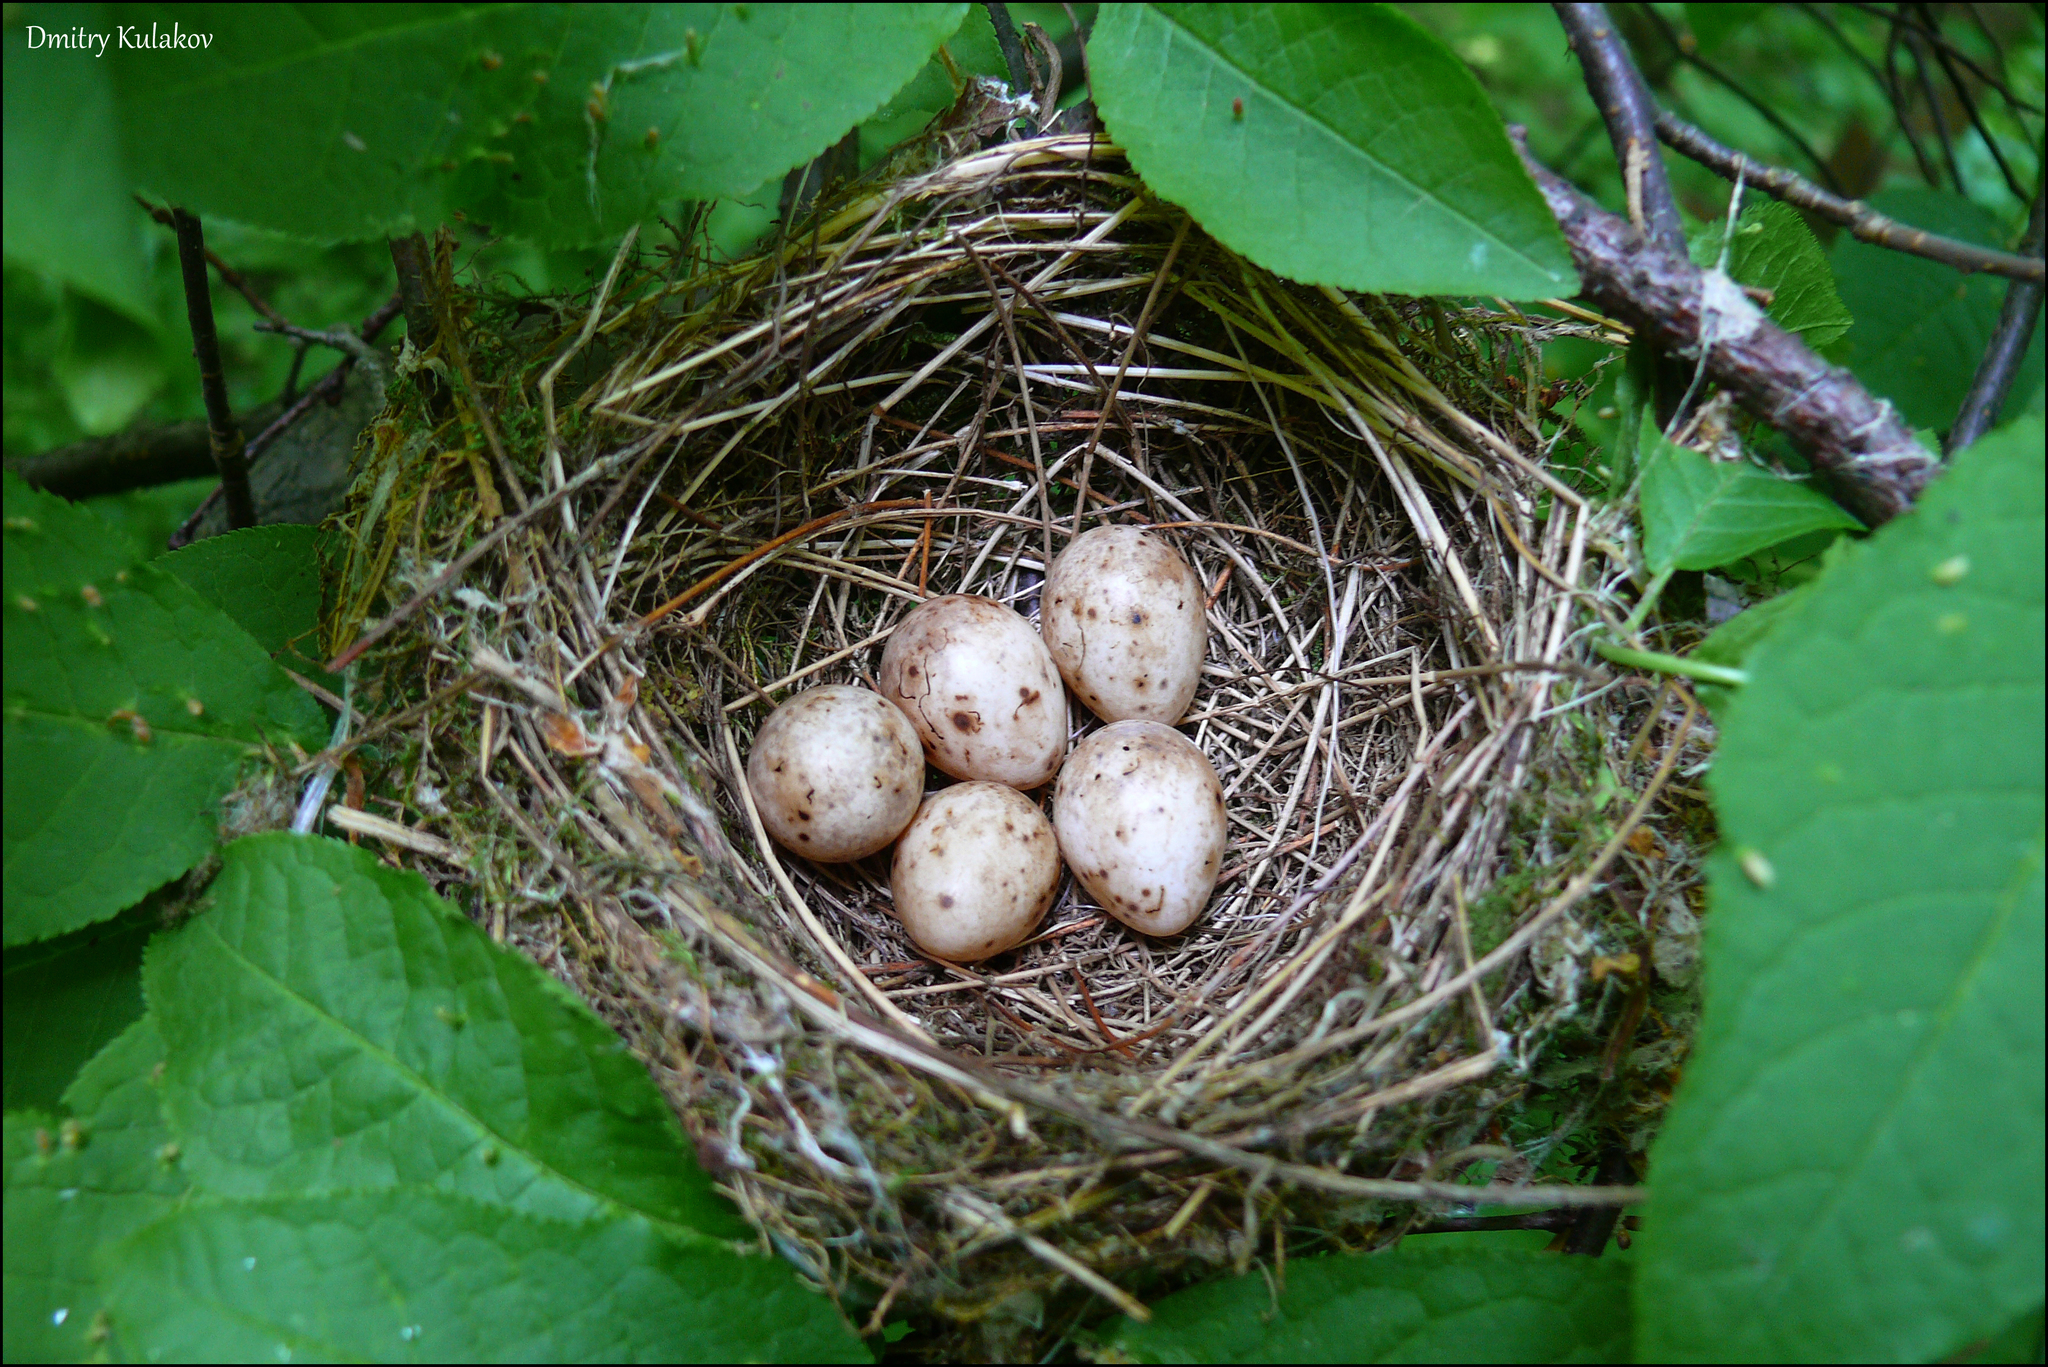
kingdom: Animalia
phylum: Chordata
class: Aves
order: Passeriformes
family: Sylviidae
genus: Sylvia
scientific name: Sylvia atricapilla
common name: Eurasian blackcap
